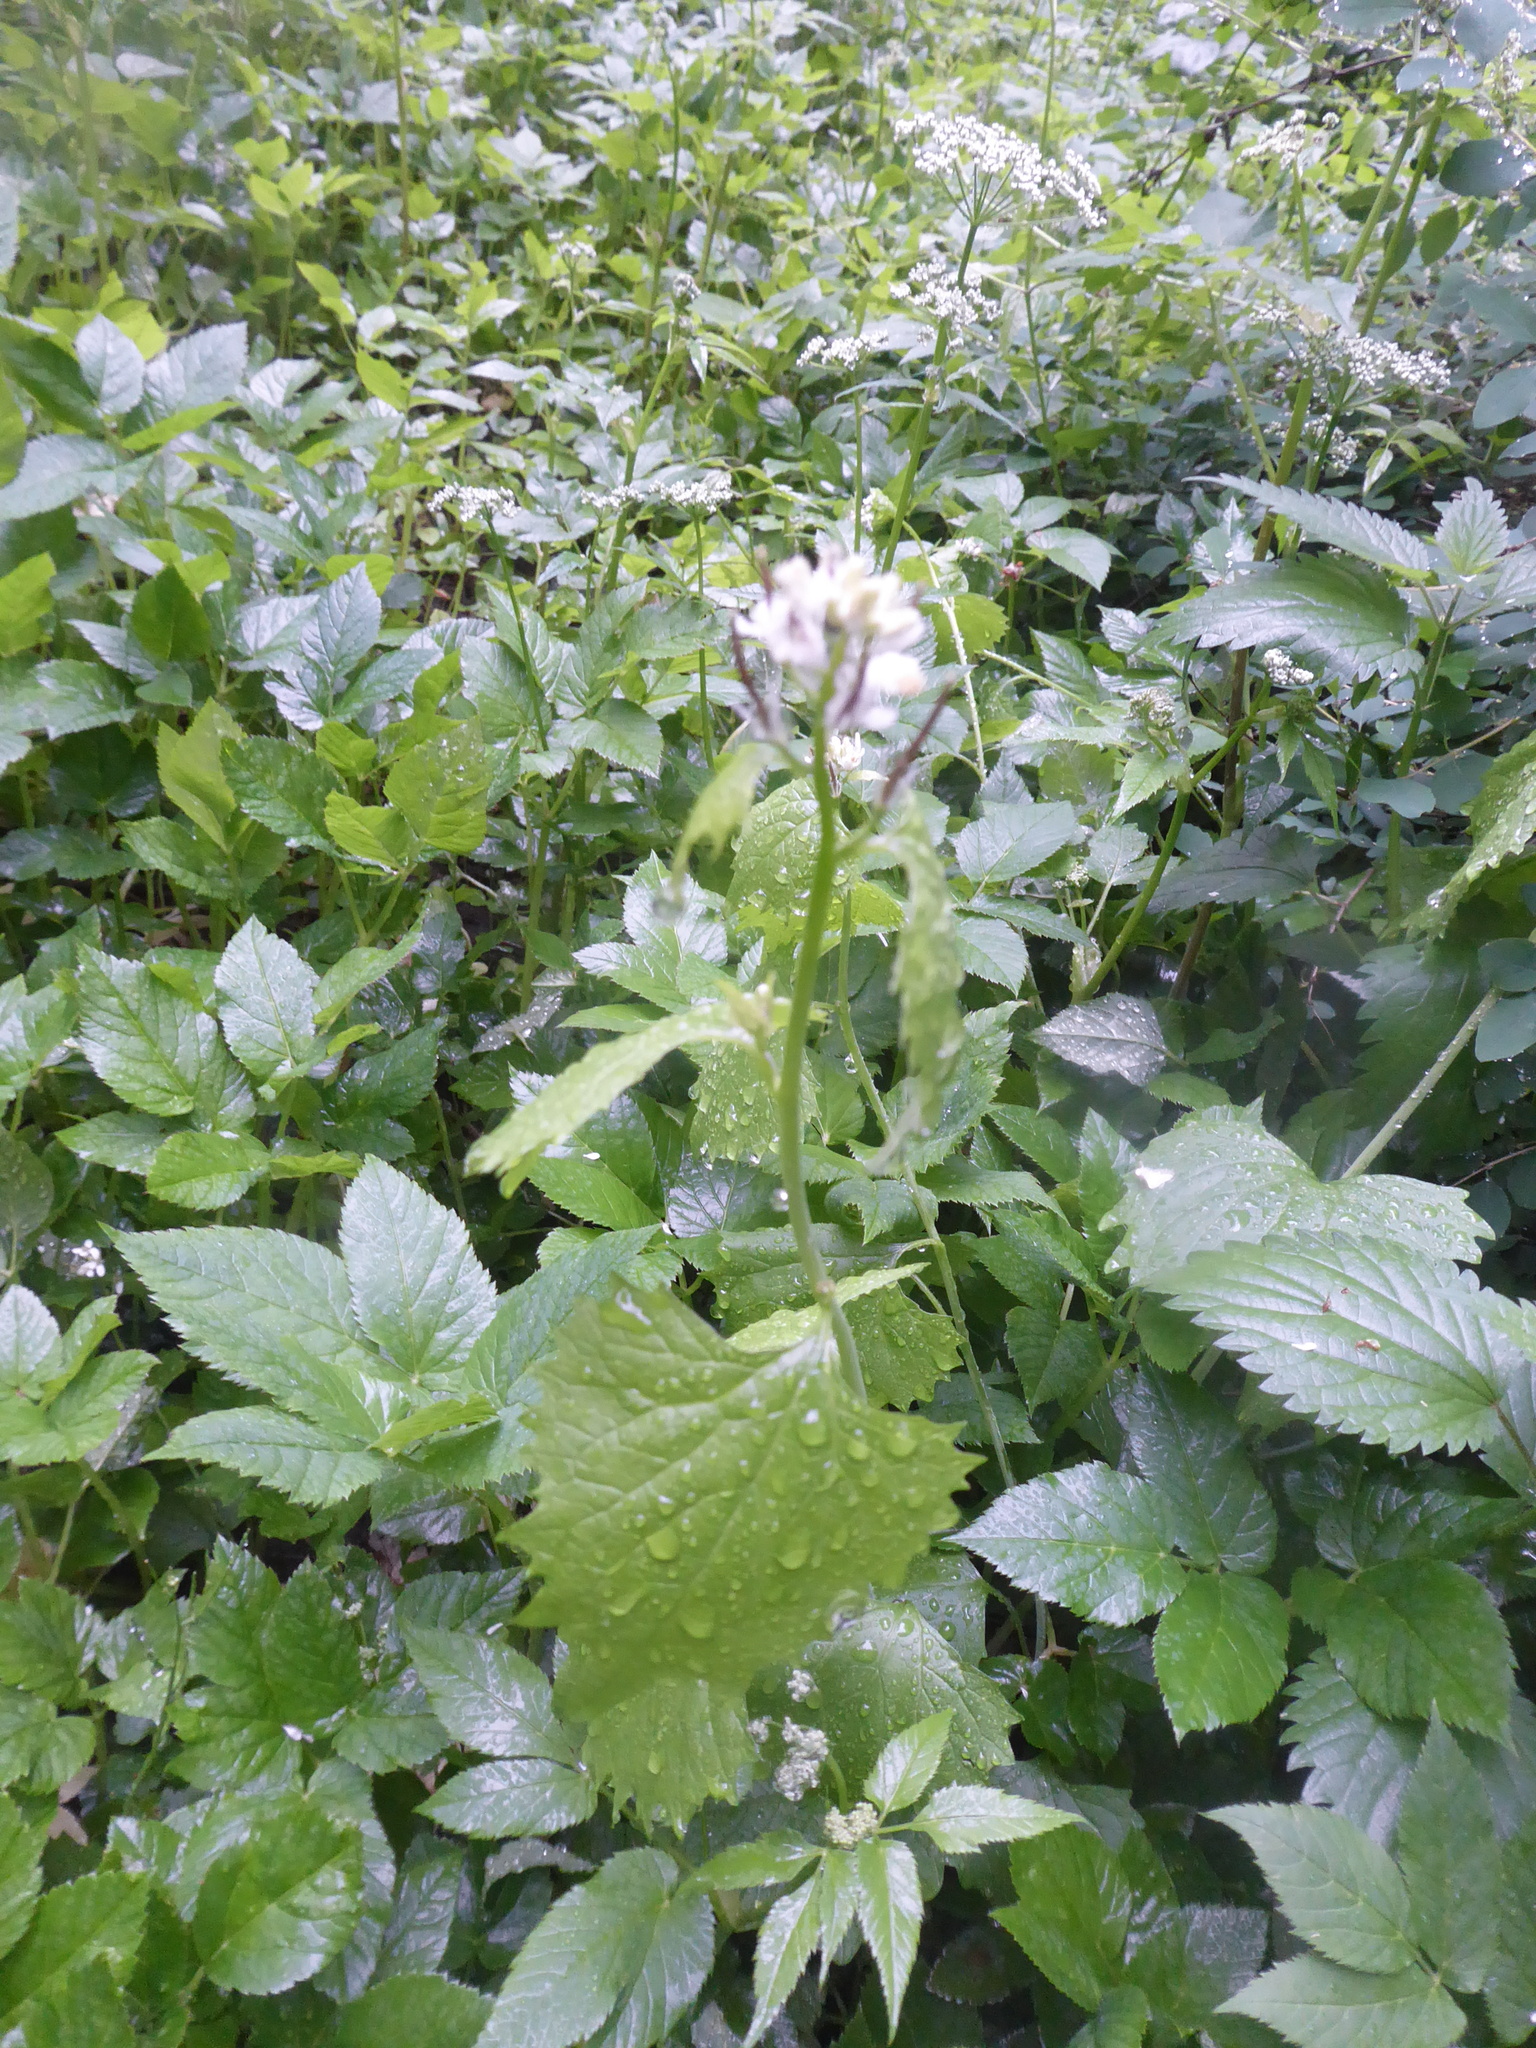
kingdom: Plantae
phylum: Tracheophyta
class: Magnoliopsida
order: Brassicales
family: Brassicaceae
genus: Alliaria
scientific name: Alliaria petiolata
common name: Garlic mustard
